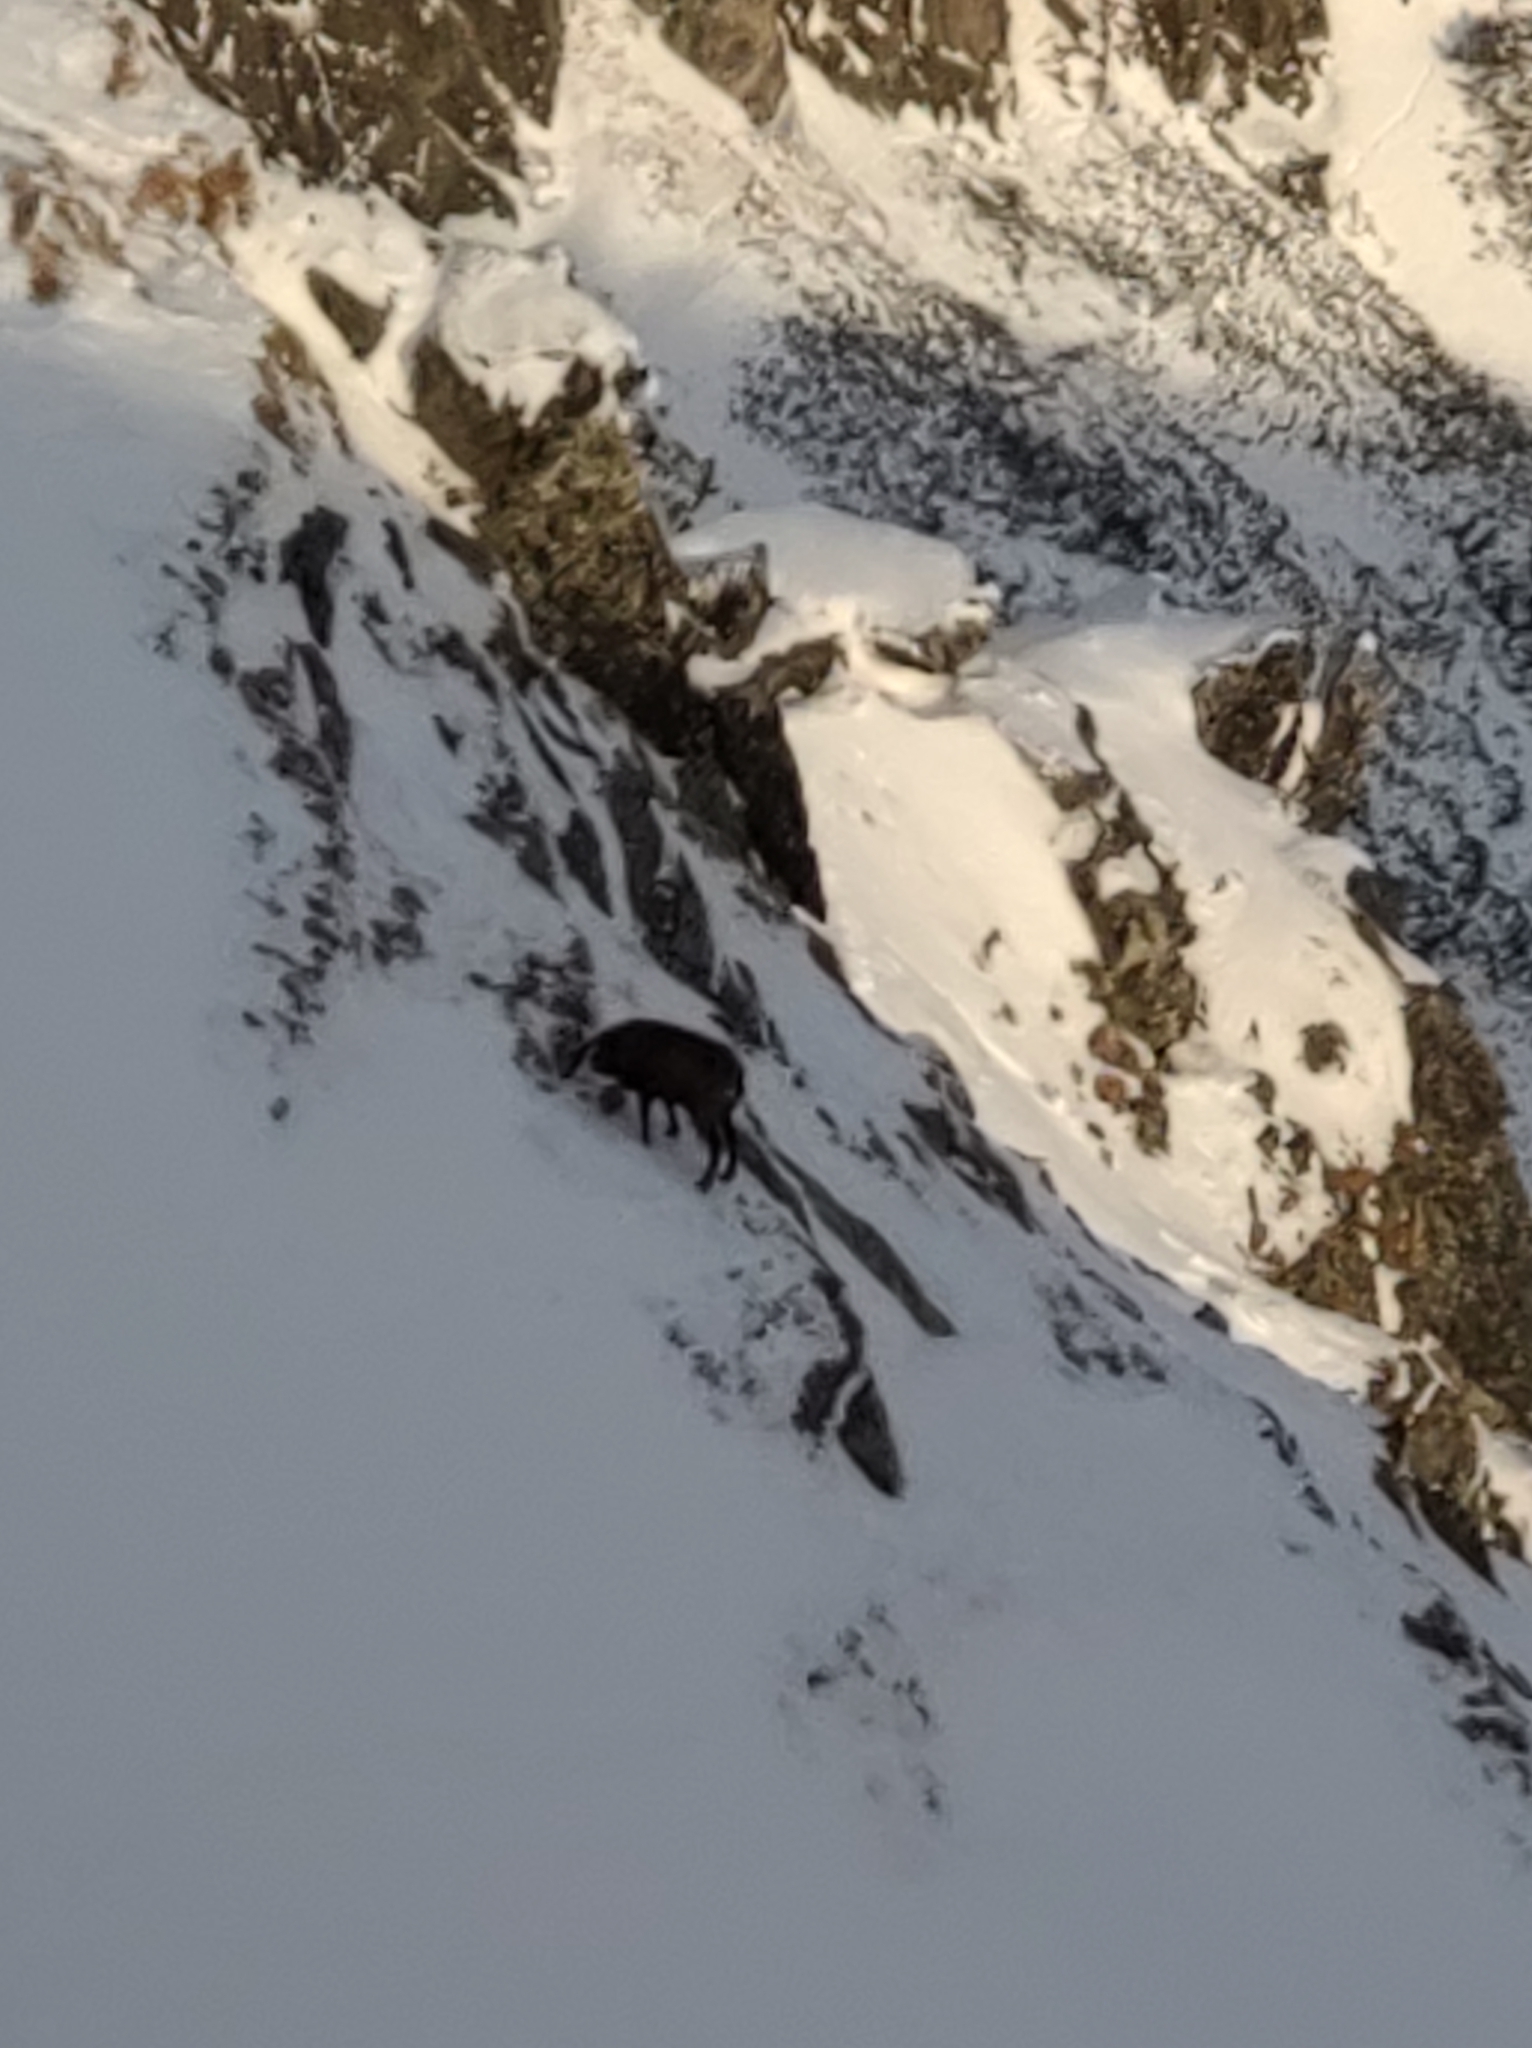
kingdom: Animalia
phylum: Chordata
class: Mammalia
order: Artiodactyla
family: Bovidae
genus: Rupicapra
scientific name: Rupicapra rupicapra
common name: Chamois
